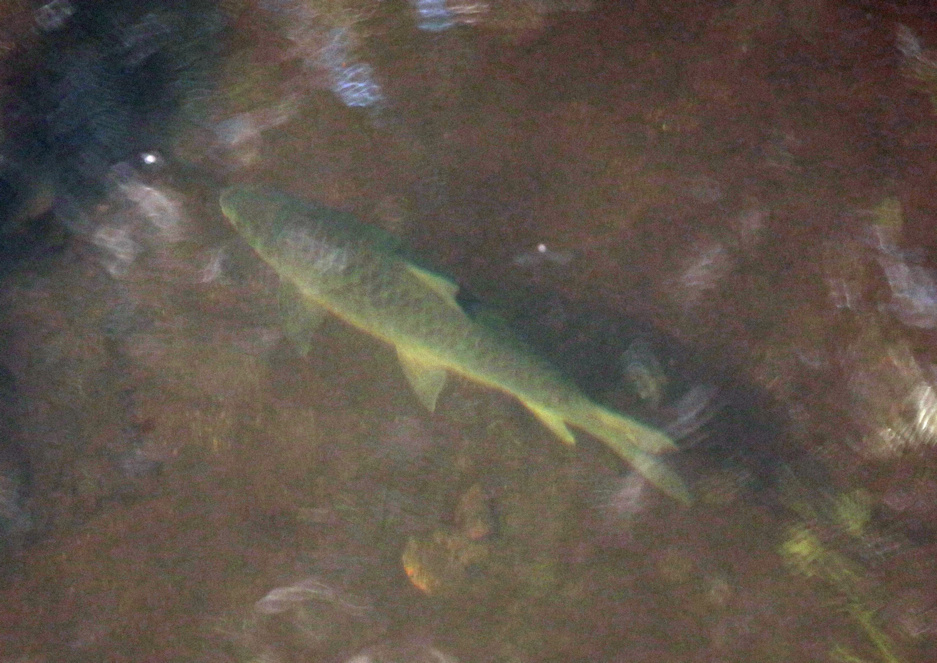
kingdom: Animalia
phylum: Chordata
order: Cypriniformes
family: Cyprinidae
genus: Labeobarbus
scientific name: Labeobarbus marequensis
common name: Largescale yellowfish
